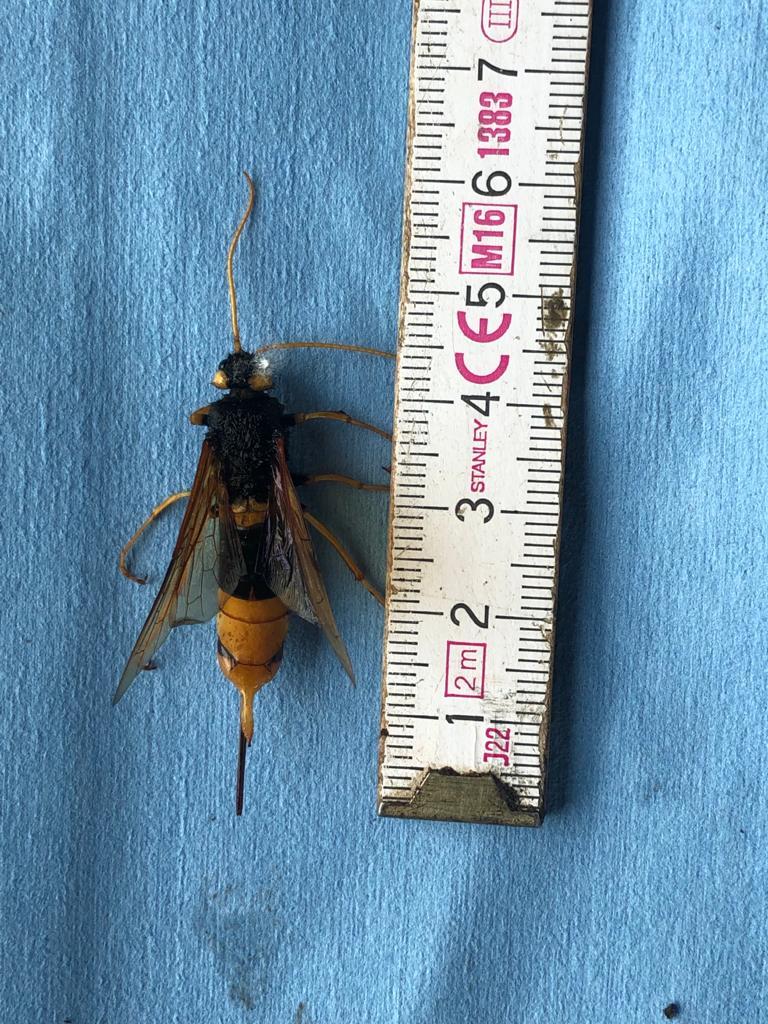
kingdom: Animalia
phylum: Arthropoda
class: Insecta
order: Hymenoptera
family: Siricidae
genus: Urocerus
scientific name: Urocerus gigas
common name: Giant woodwasp
